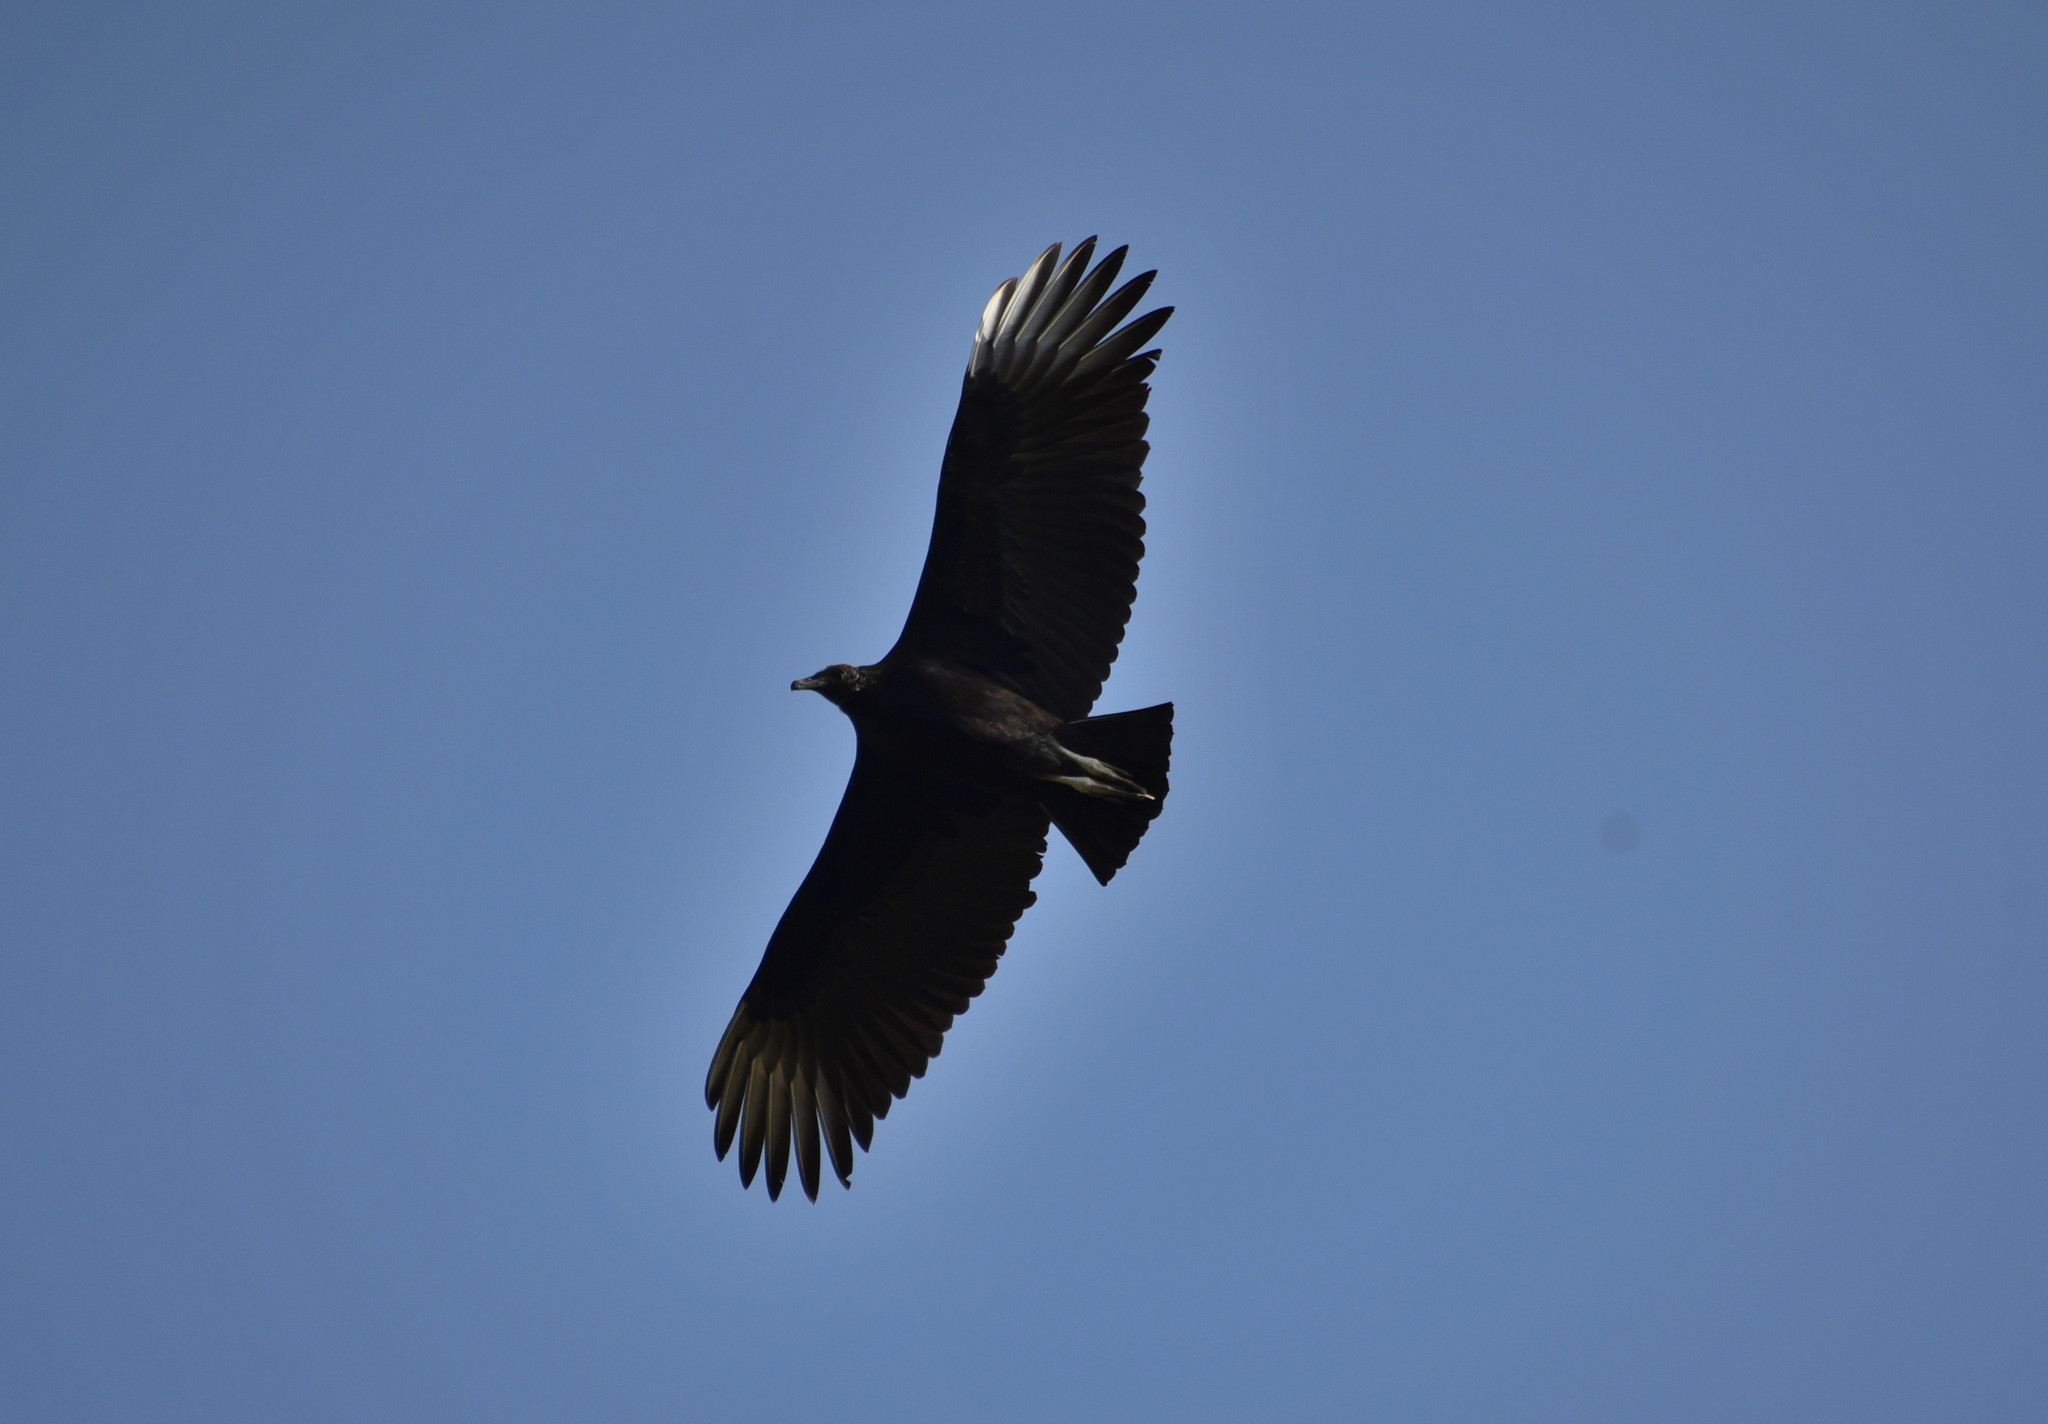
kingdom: Animalia
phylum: Chordata
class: Aves
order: Accipitriformes
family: Cathartidae
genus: Coragyps
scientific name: Coragyps atratus
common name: Black vulture
